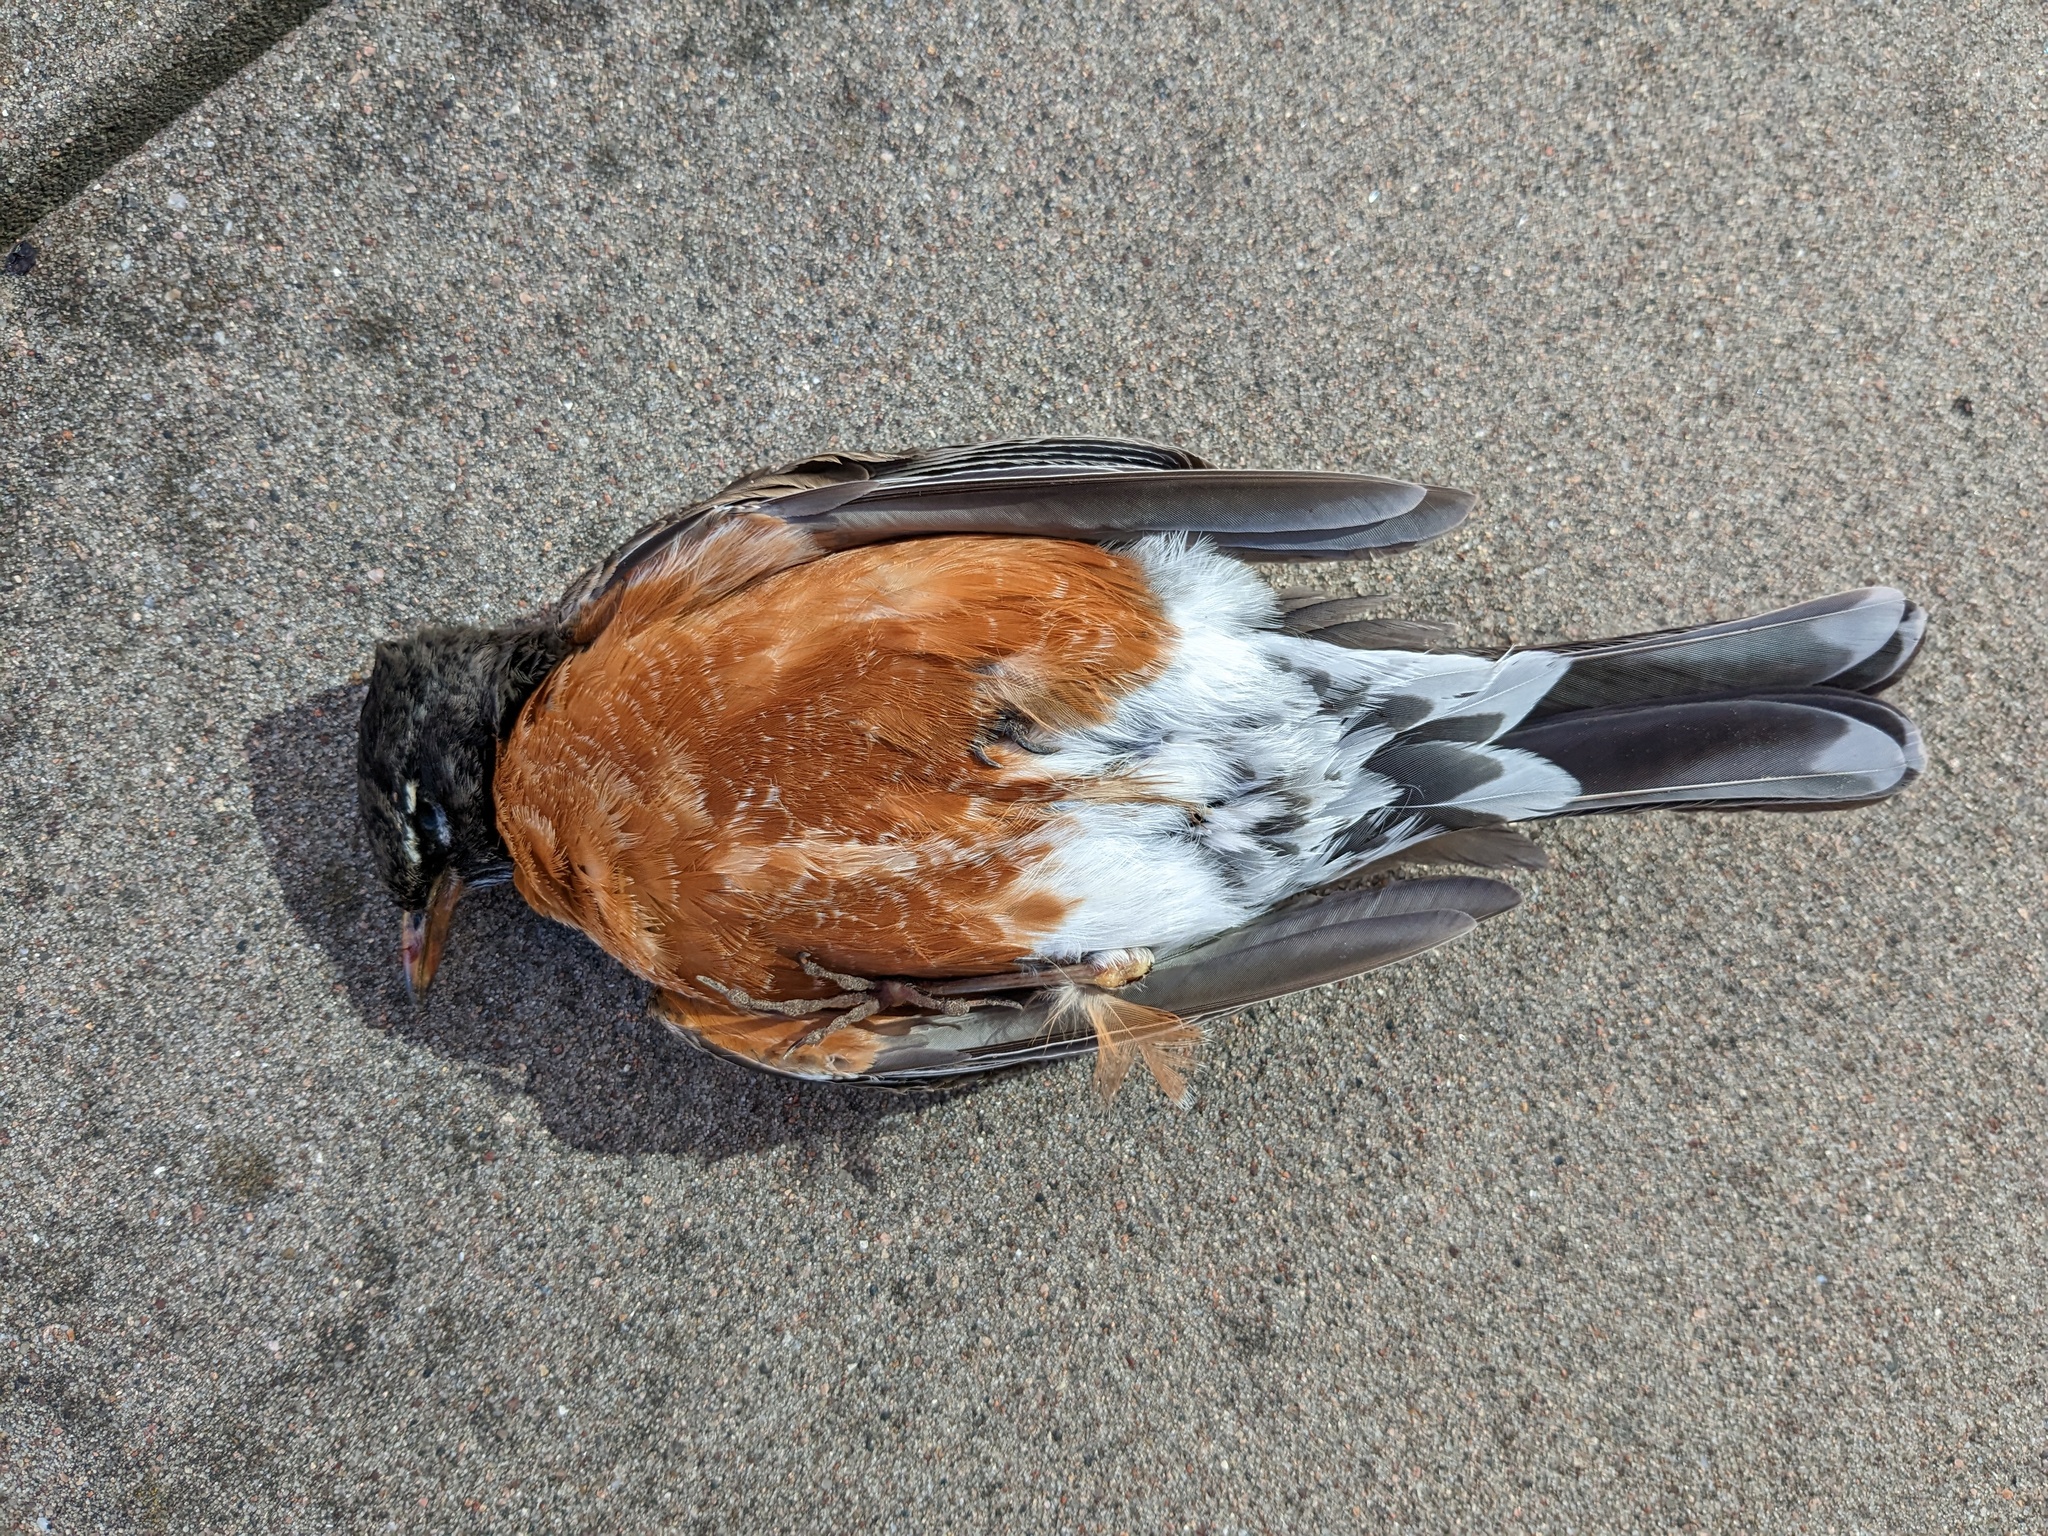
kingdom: Animalia
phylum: Chordata
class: Aves
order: Passeriformes
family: Turdidae
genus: Turdus
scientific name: Turdus migratorius
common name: American robin
